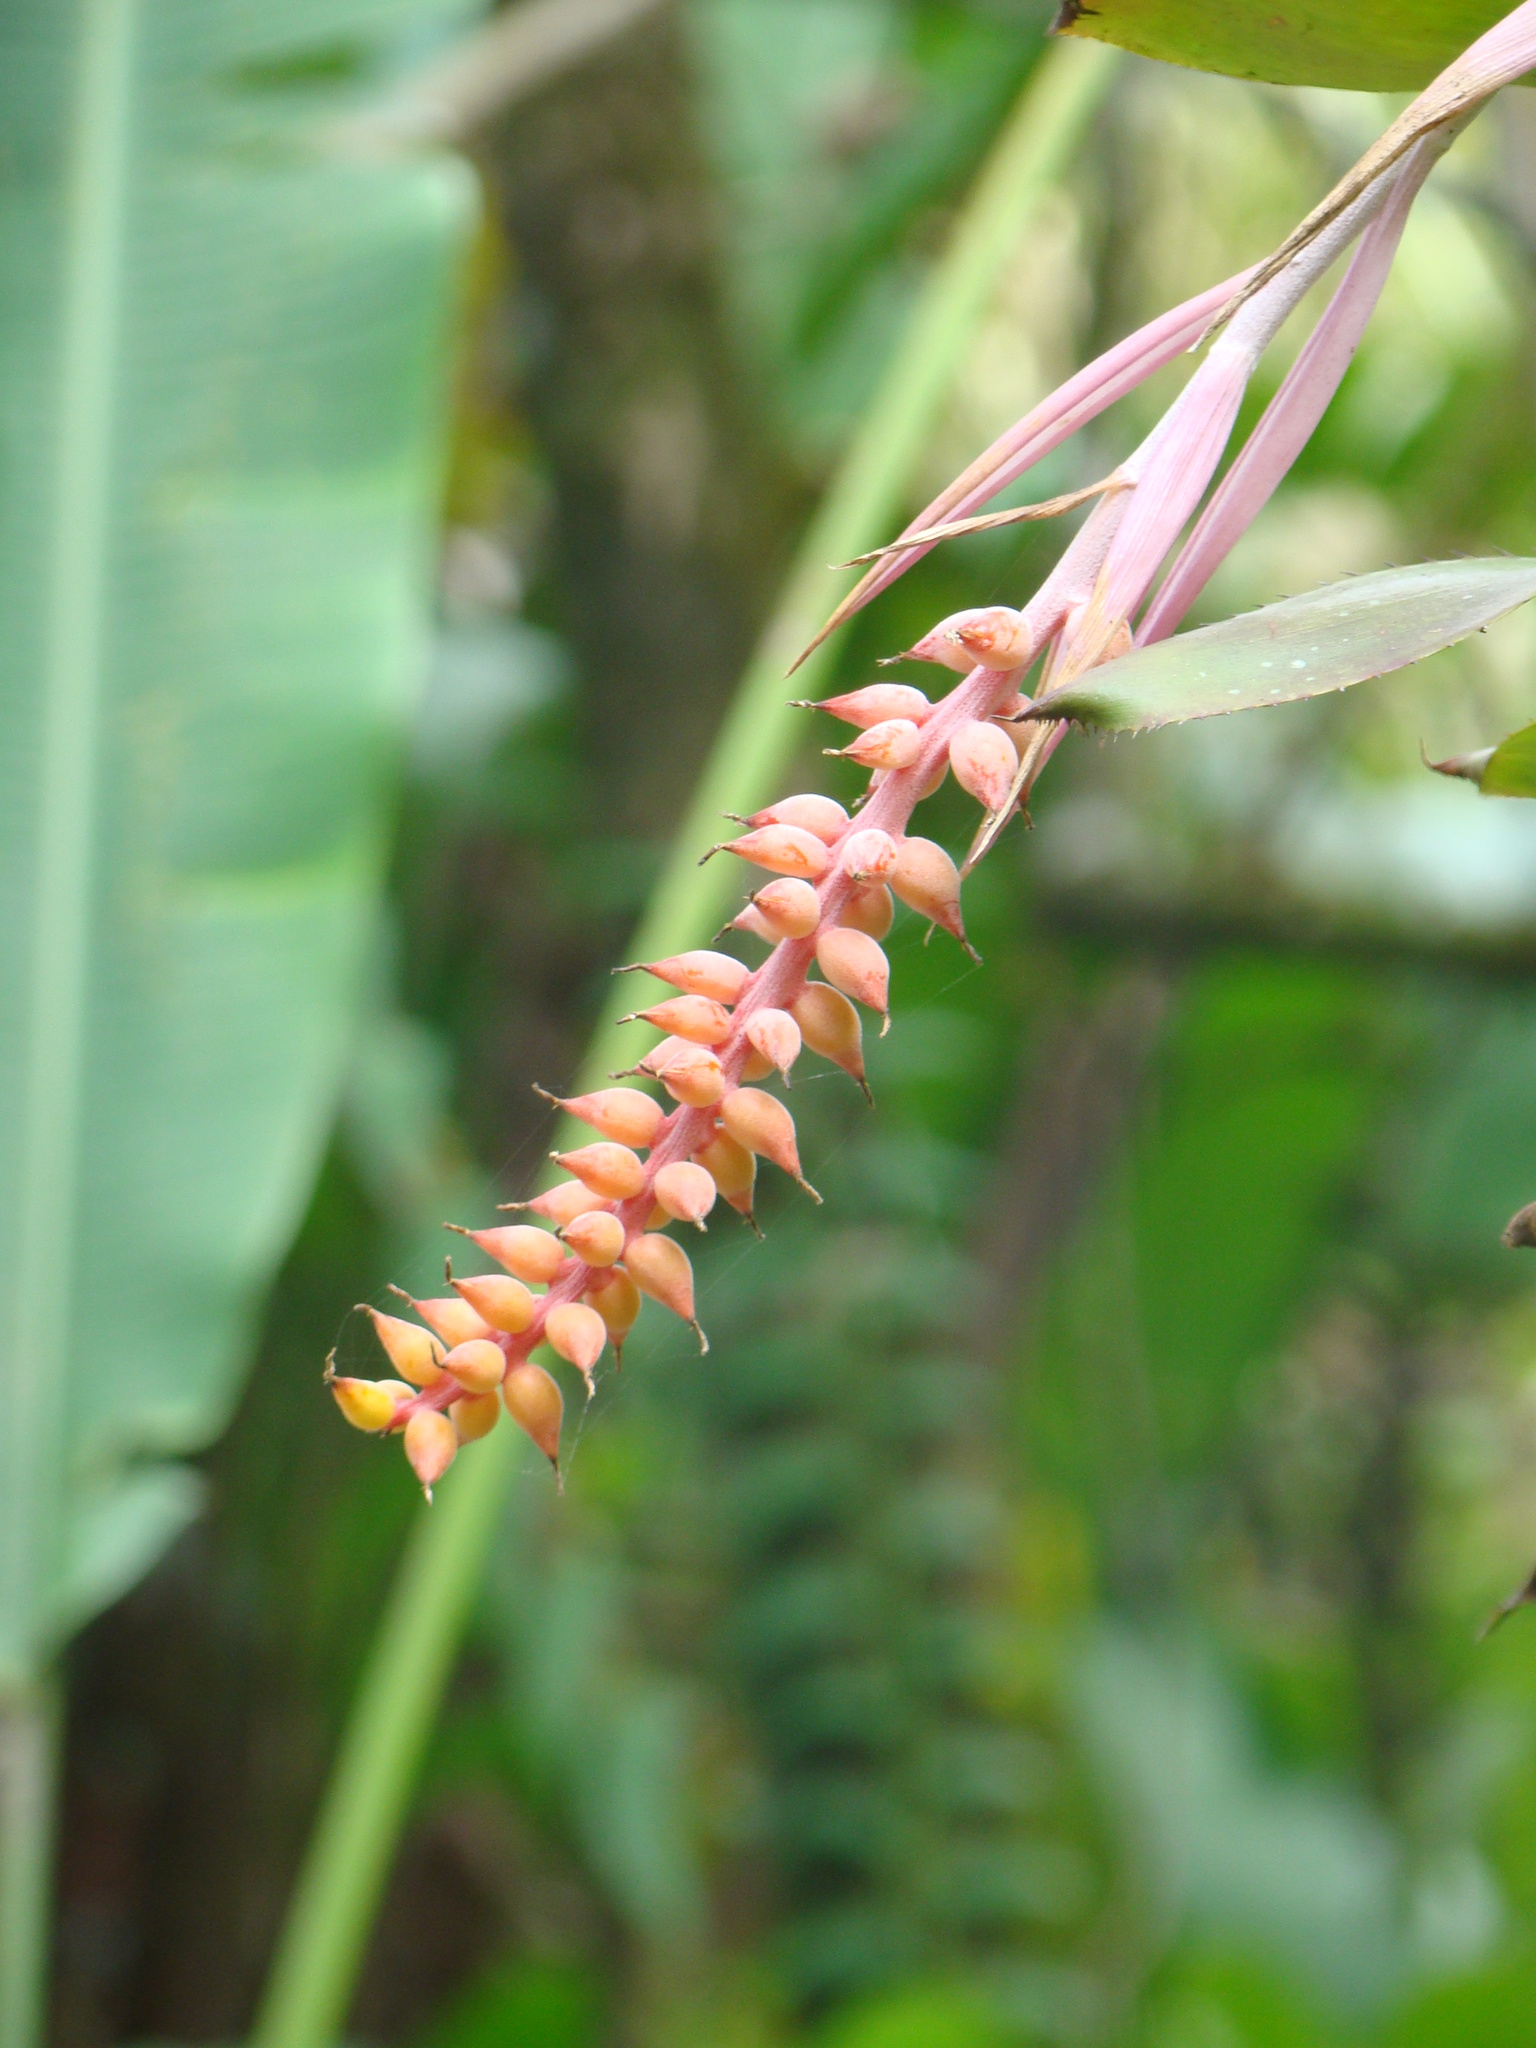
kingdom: Plantae
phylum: Tracheophyta
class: Liliopsida
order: Poales
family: Bromeliaceae
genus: Aechmea
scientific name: Aechmea nudicaulis
